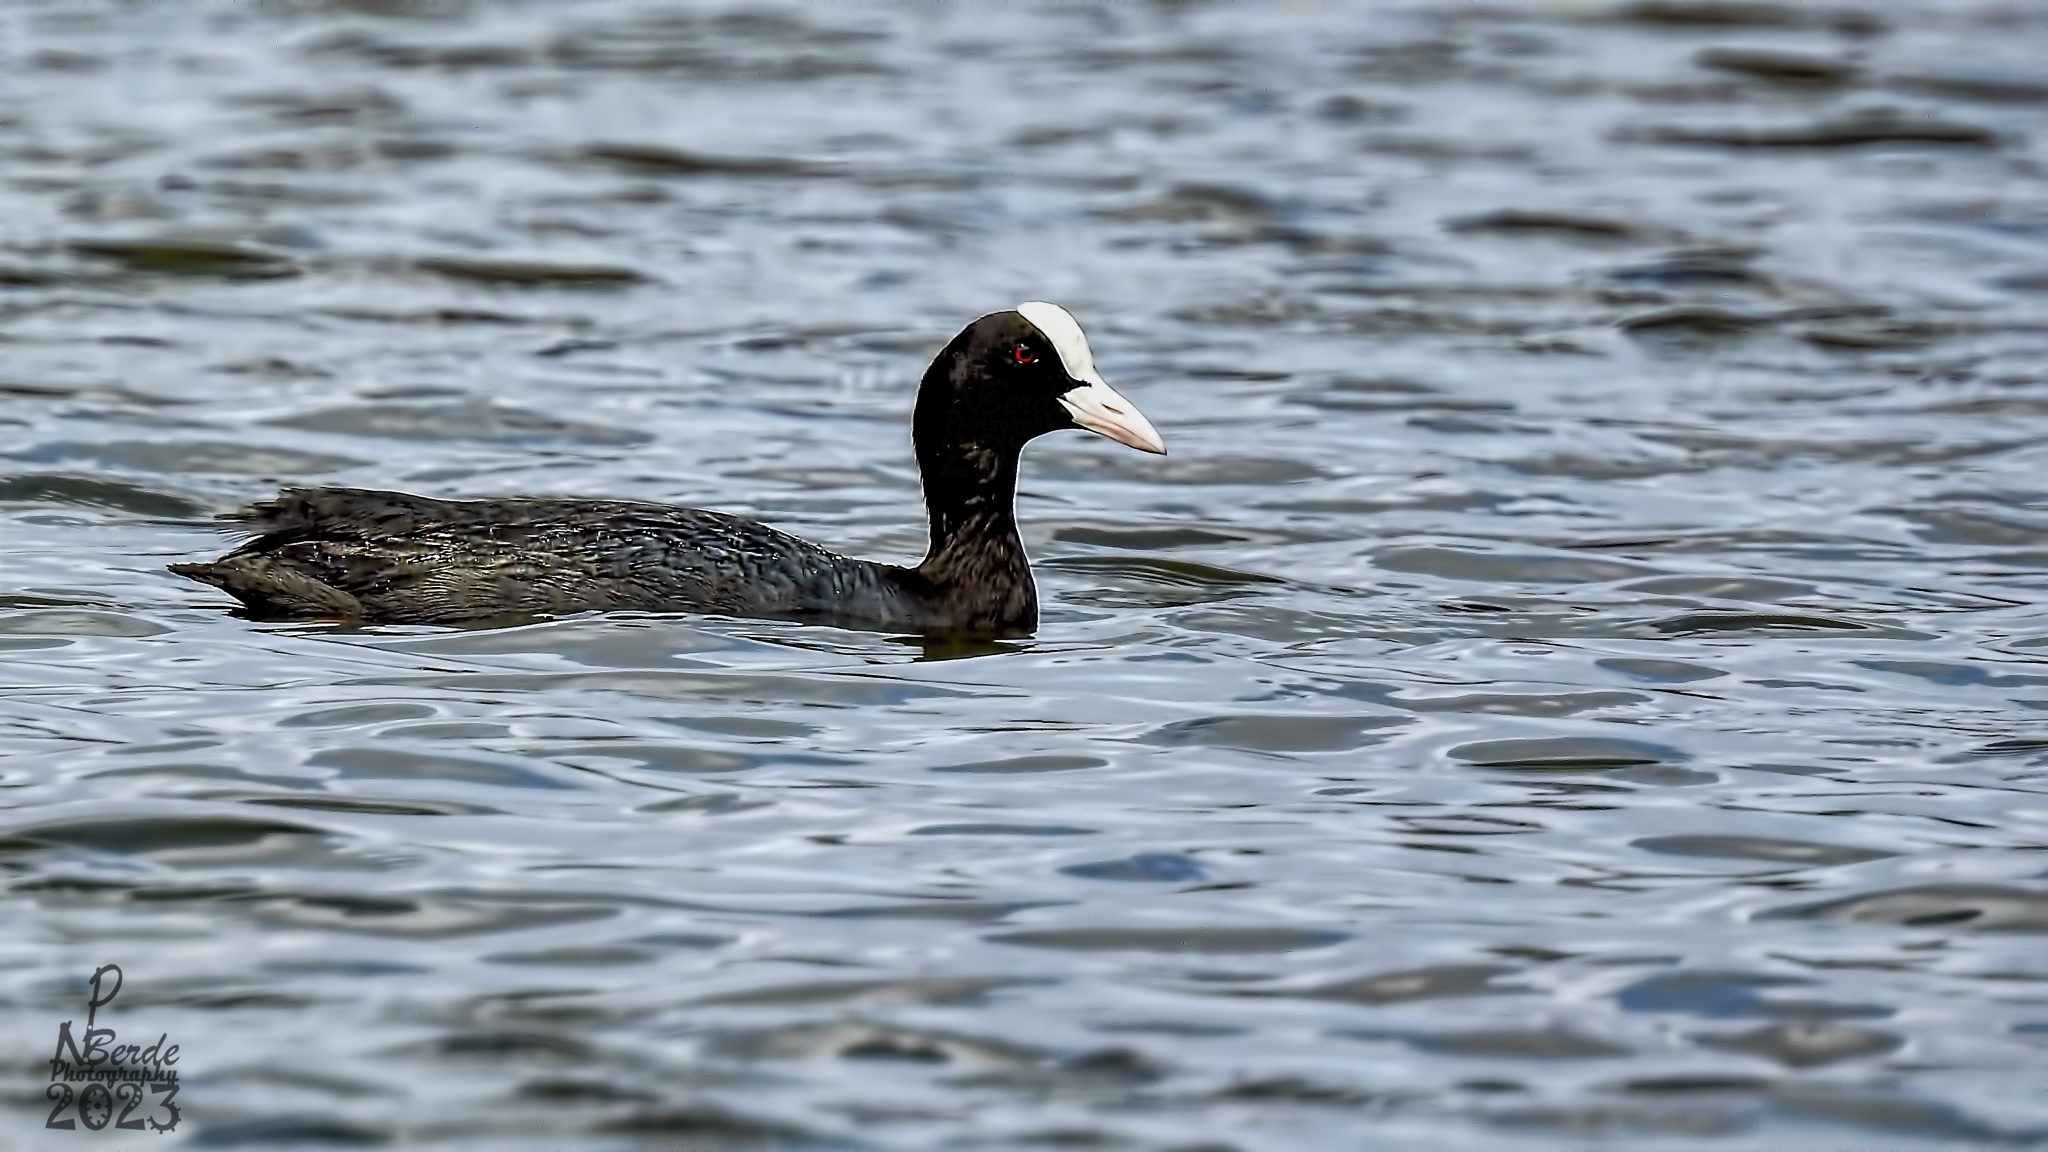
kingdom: Animalia
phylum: Chordata
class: Aves
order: Gruiformes
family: Rallidae
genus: Fulica
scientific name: Fulica atra
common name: Eurasian coot
